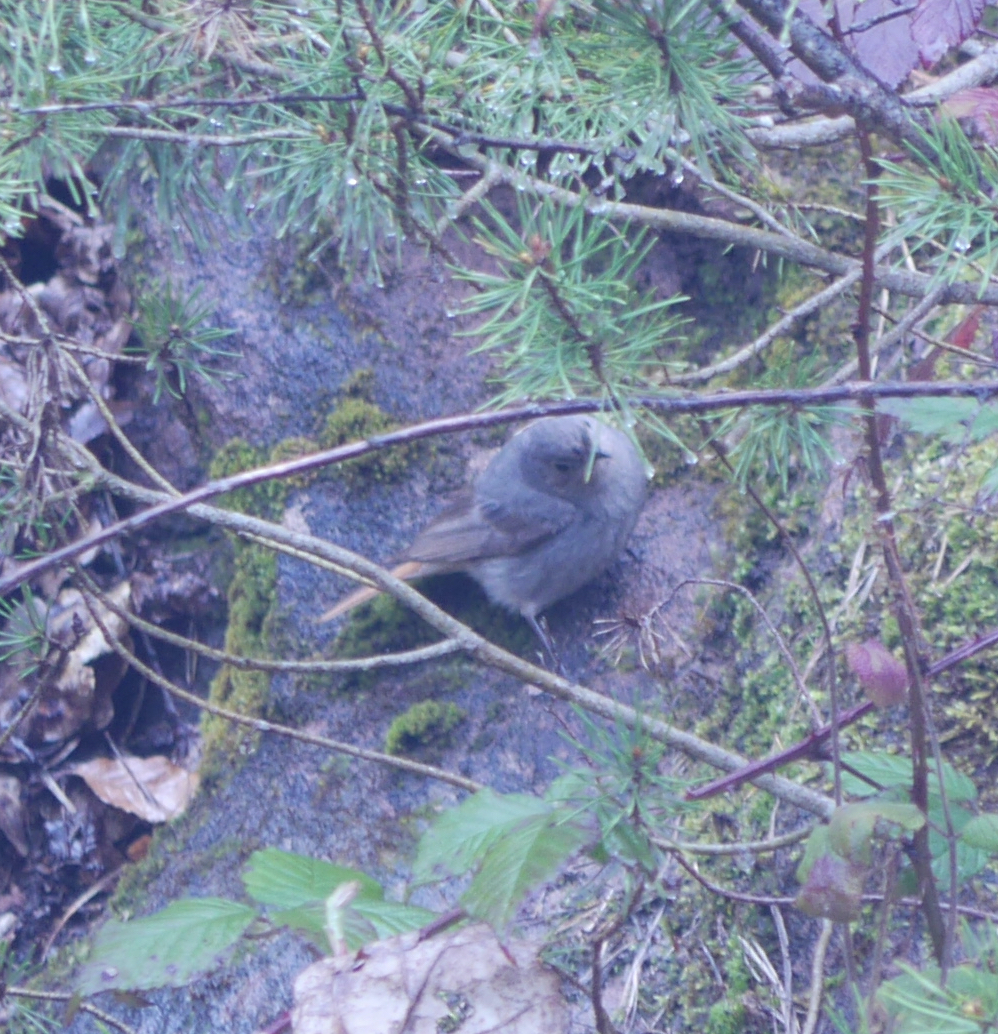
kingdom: Animalia
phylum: Chordata
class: Aves
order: Passeriformes
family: Muscicapidae
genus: Phoenicurus
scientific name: Phoenicurus ochruros
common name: Black redstart
